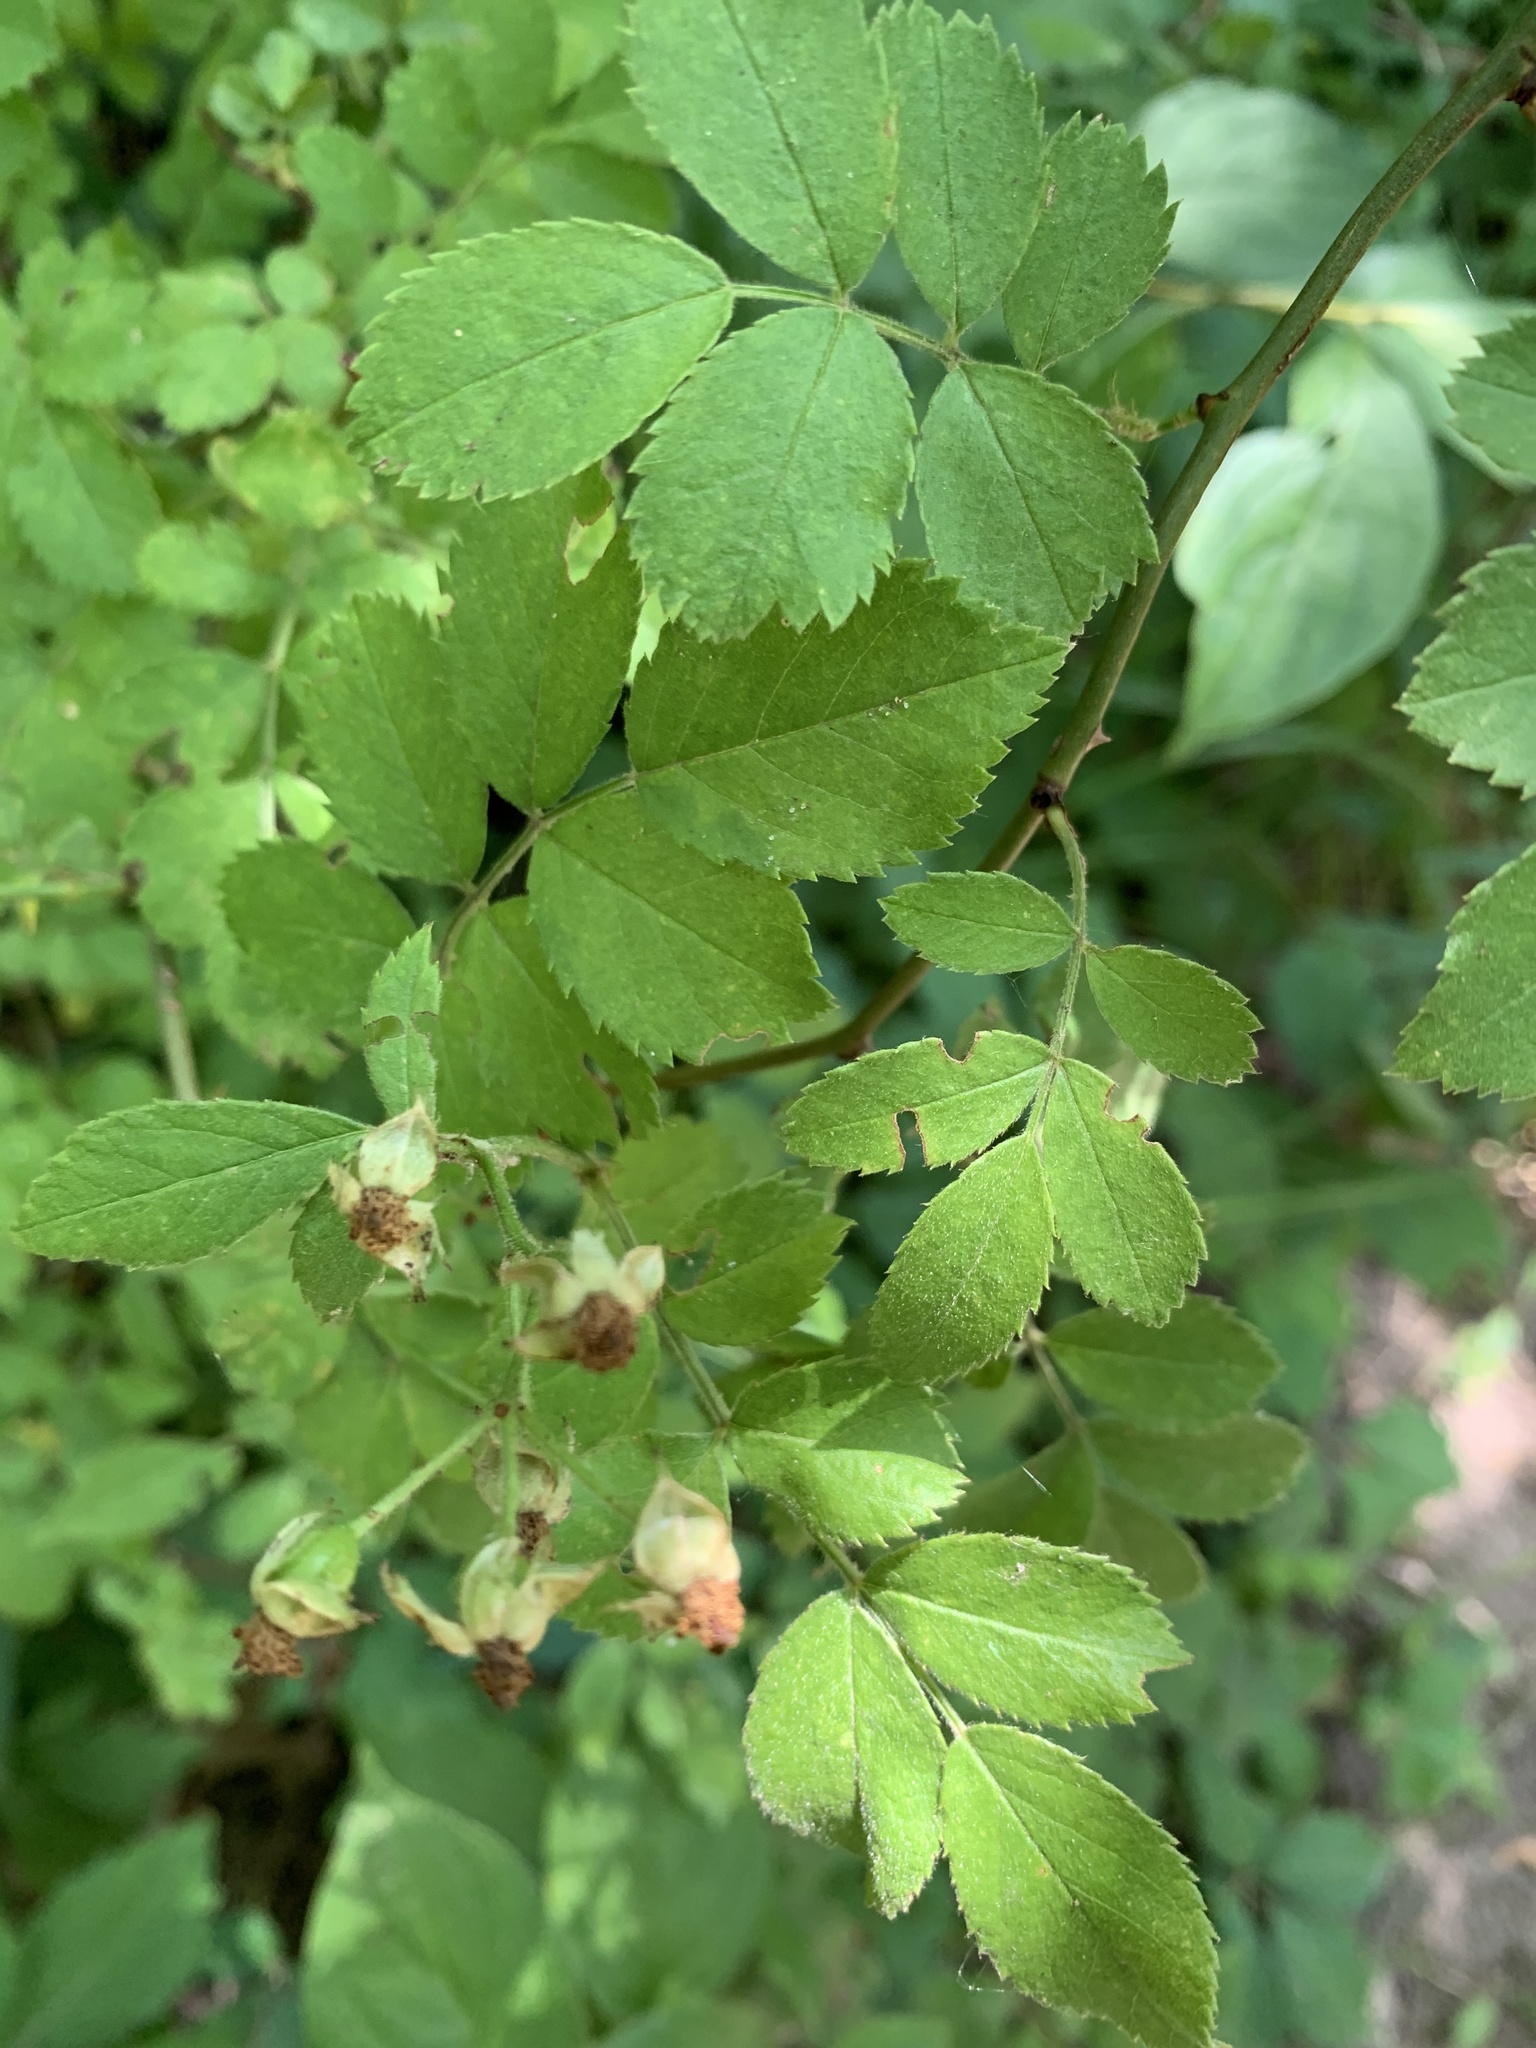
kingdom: Plantae
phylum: Tracheophyta
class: Magnoliopsida
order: Rosales
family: Rosaceae
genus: Rosa
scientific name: Rosa multiflora
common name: Multiflora rose
